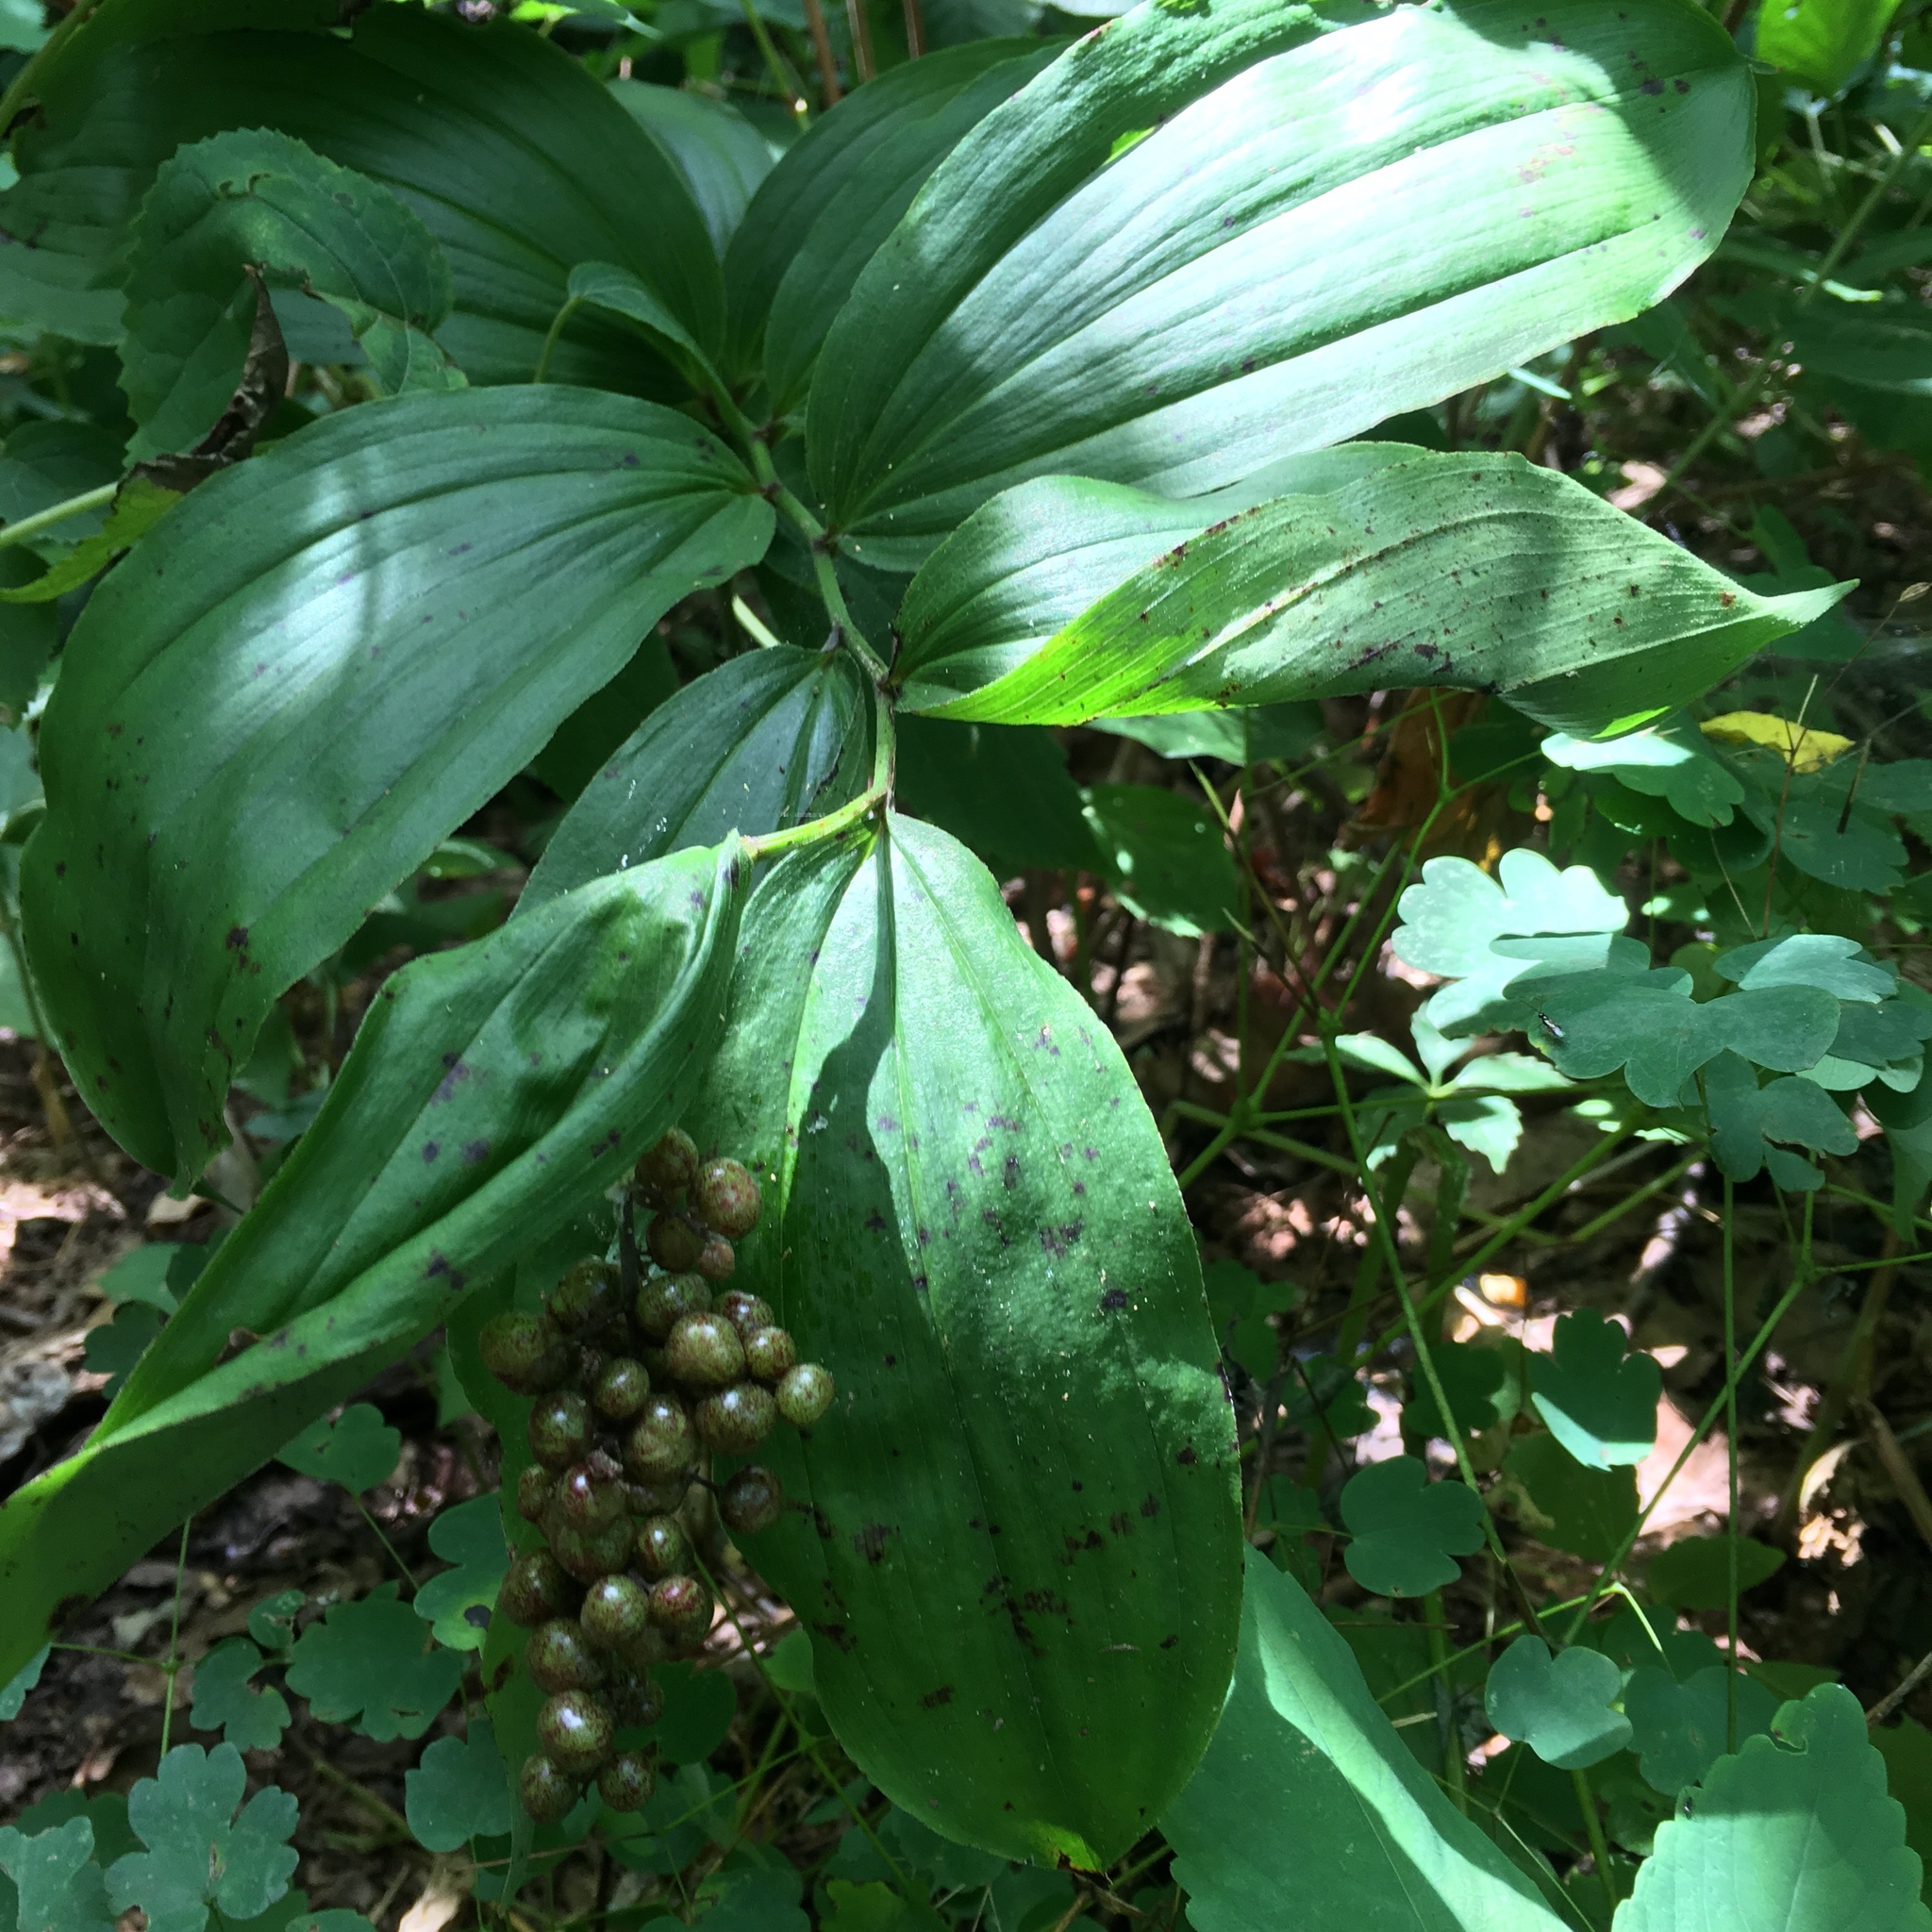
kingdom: Plantae
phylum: Tracheophyta
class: Liliopsida
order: Asparagales
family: Asparagaceae
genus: Maianthemum
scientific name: Maianthemum racemosum
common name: False spikenard
